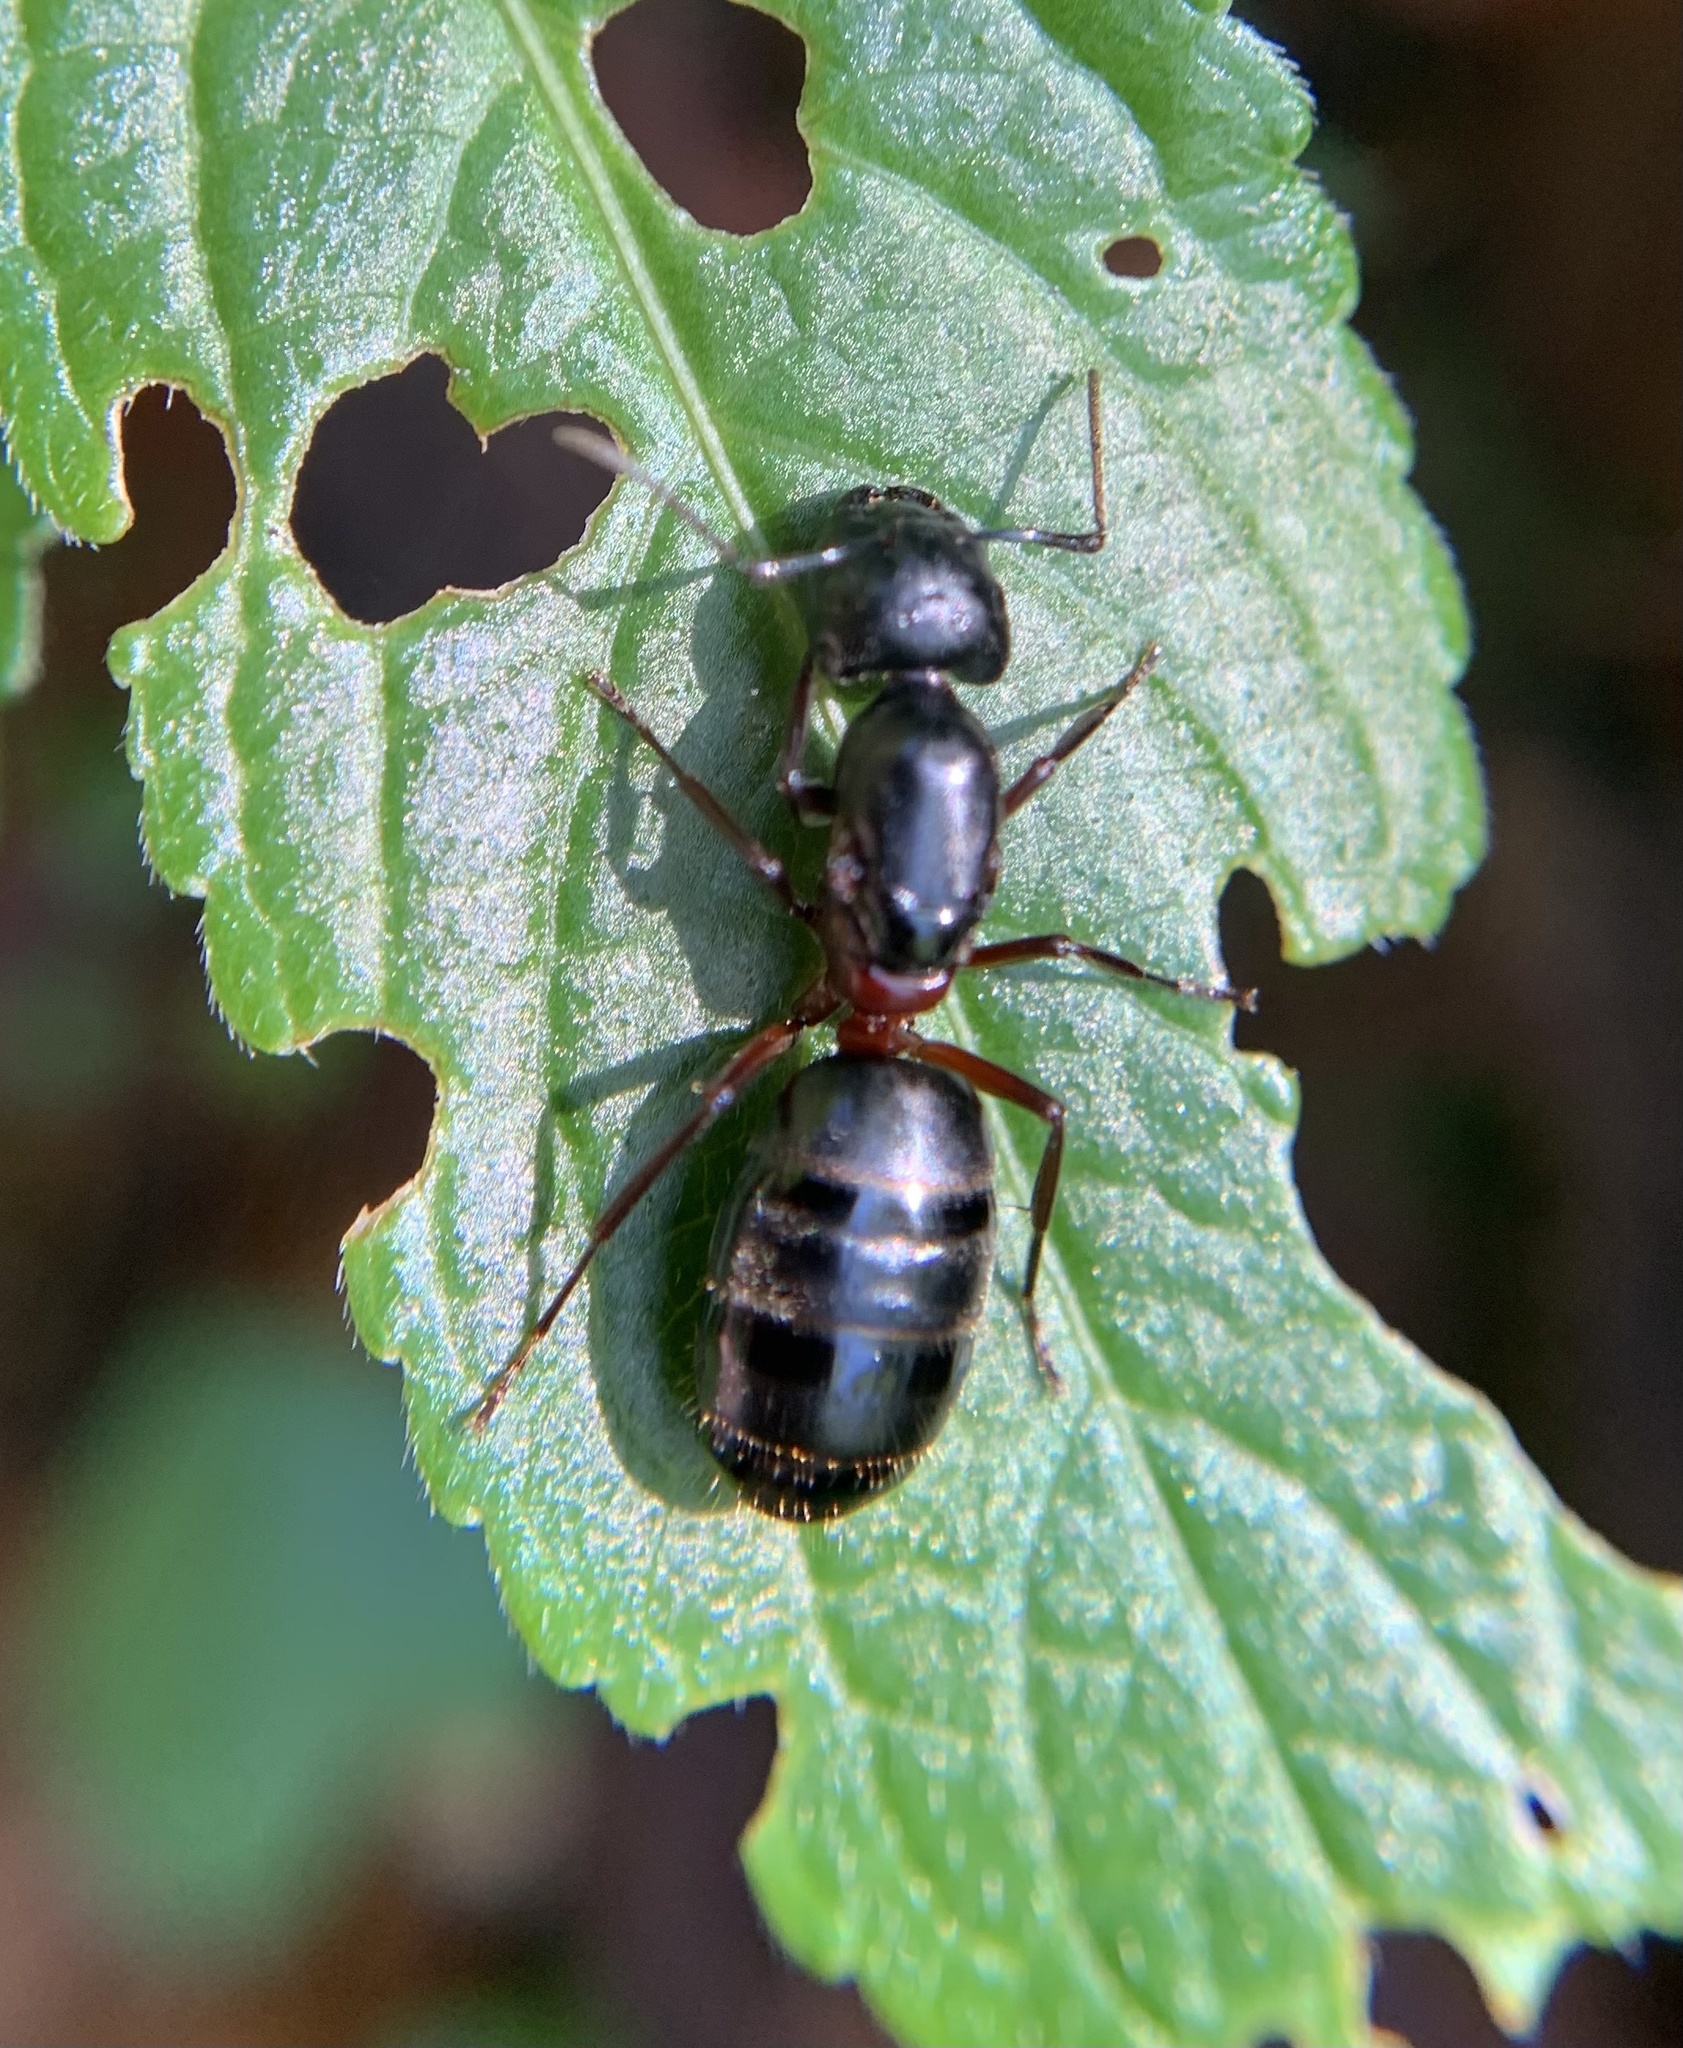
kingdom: Animalia
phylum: Arthropoda
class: Insecta
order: Hymenoptera
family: Formicidae
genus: Camponotus
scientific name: Camponotus herculeanus
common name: Hercules ant
